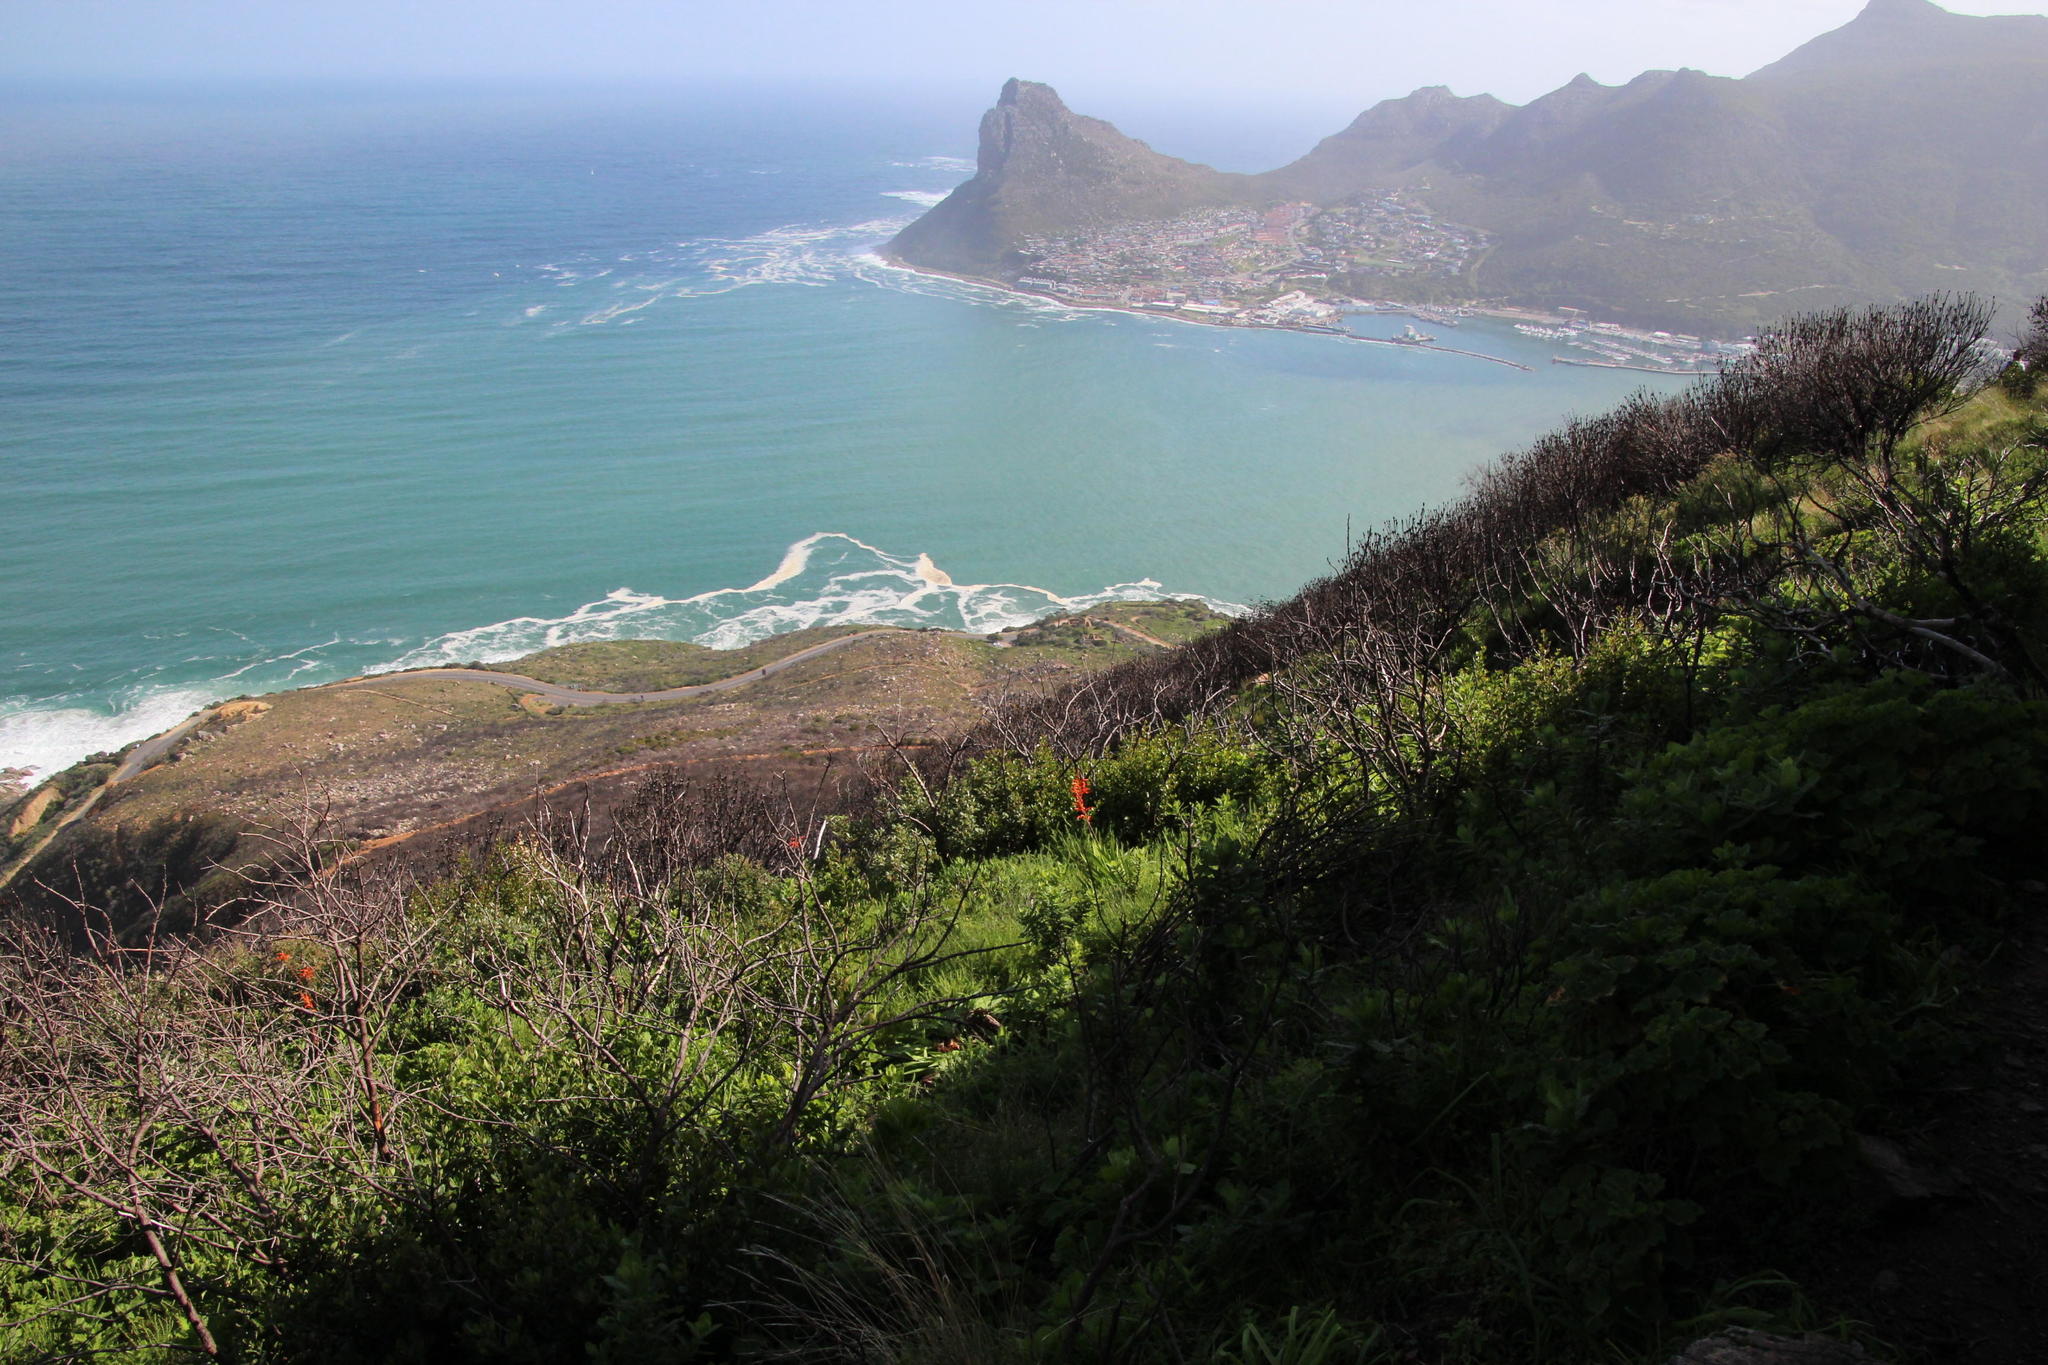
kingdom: Plantae
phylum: Tracheophyta
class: Liliopsida
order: Asparagales
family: Iridaceae
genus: Chasmanthe
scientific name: Chasmanthe floribunda
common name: African cornflag
